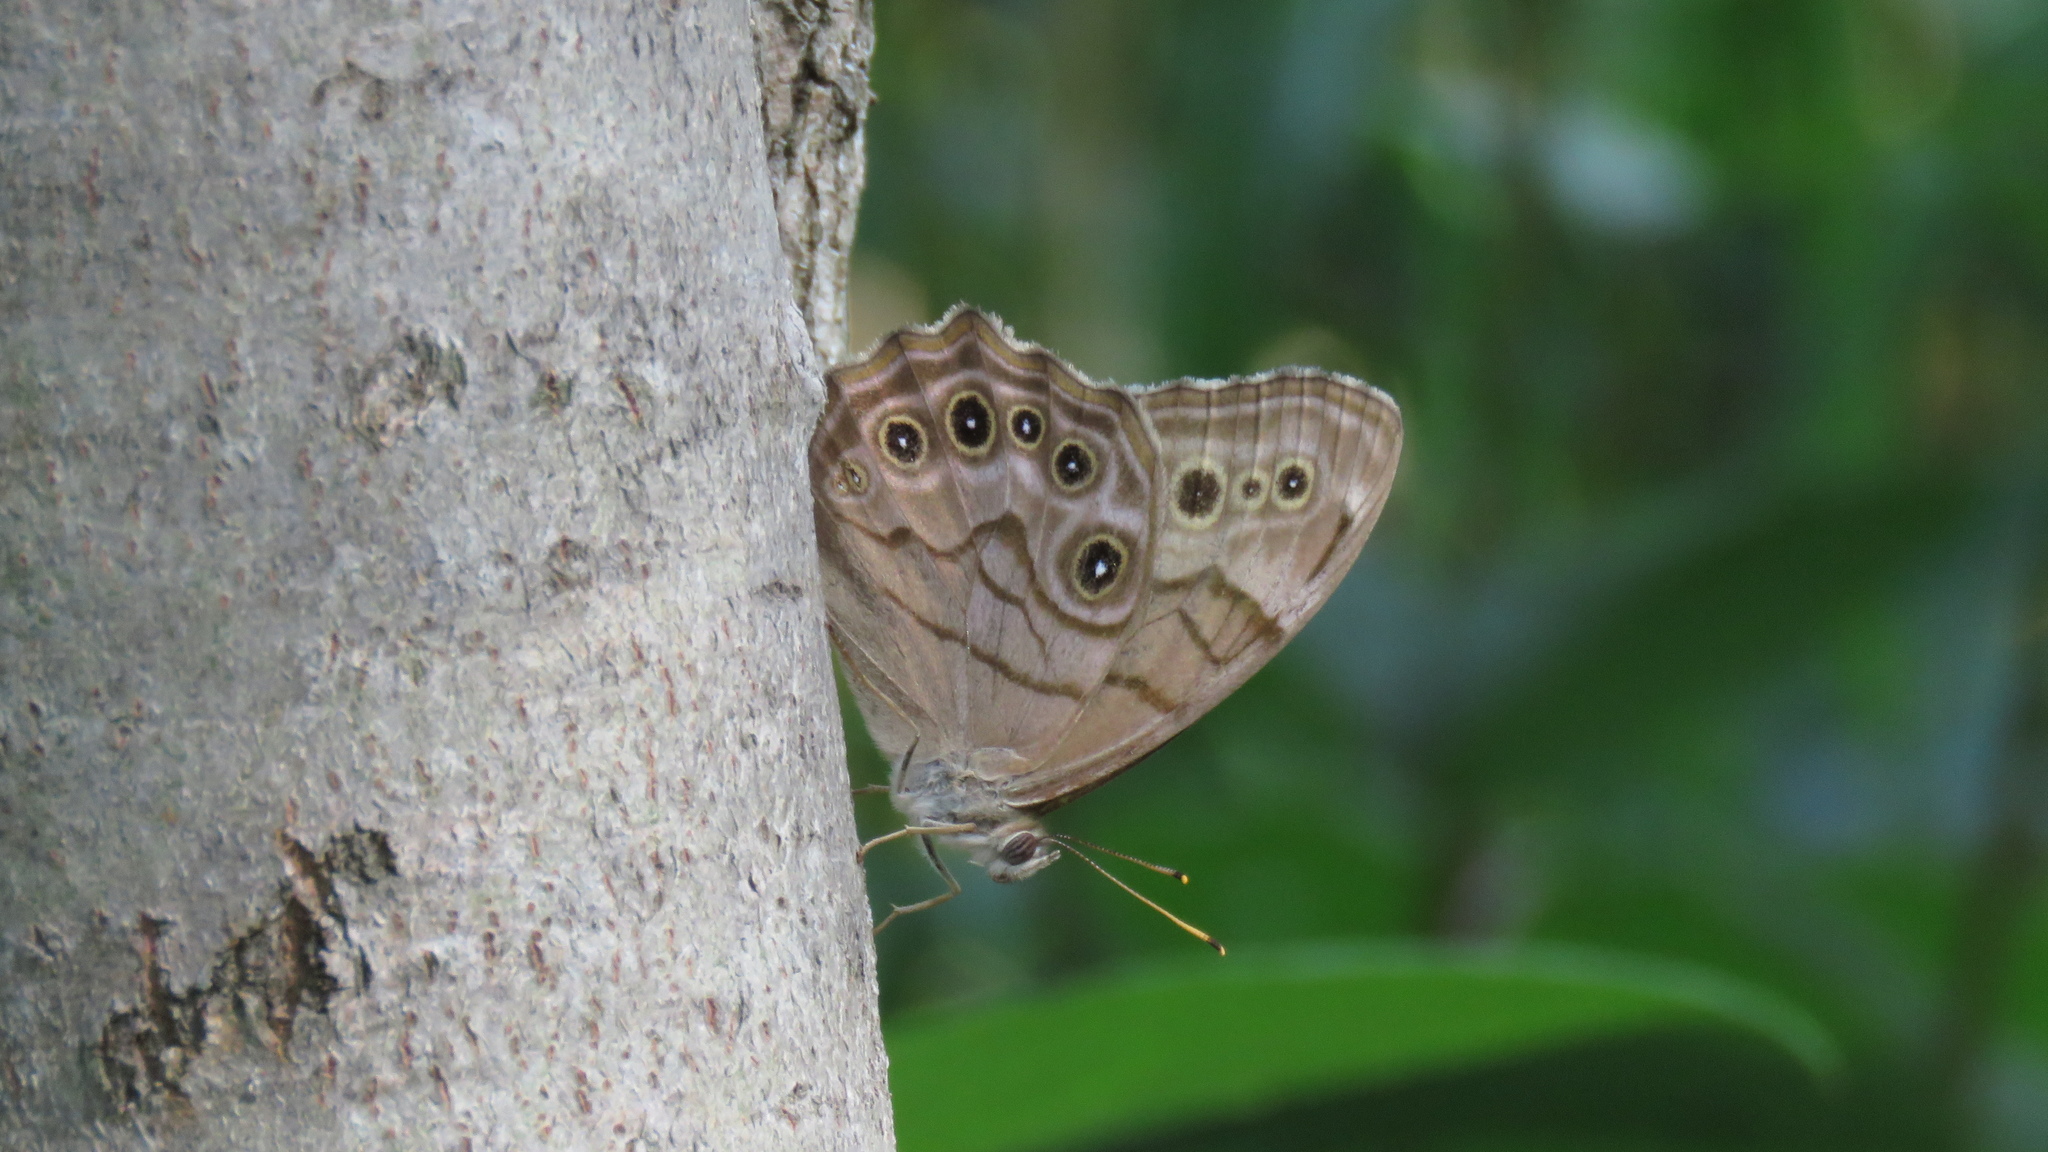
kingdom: Animalia
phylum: Arthropoda
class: Insecta
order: Lepidoptera
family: Nymphalidae
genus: Lethe
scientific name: Lethe anthedon
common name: Northern pearly-eye
